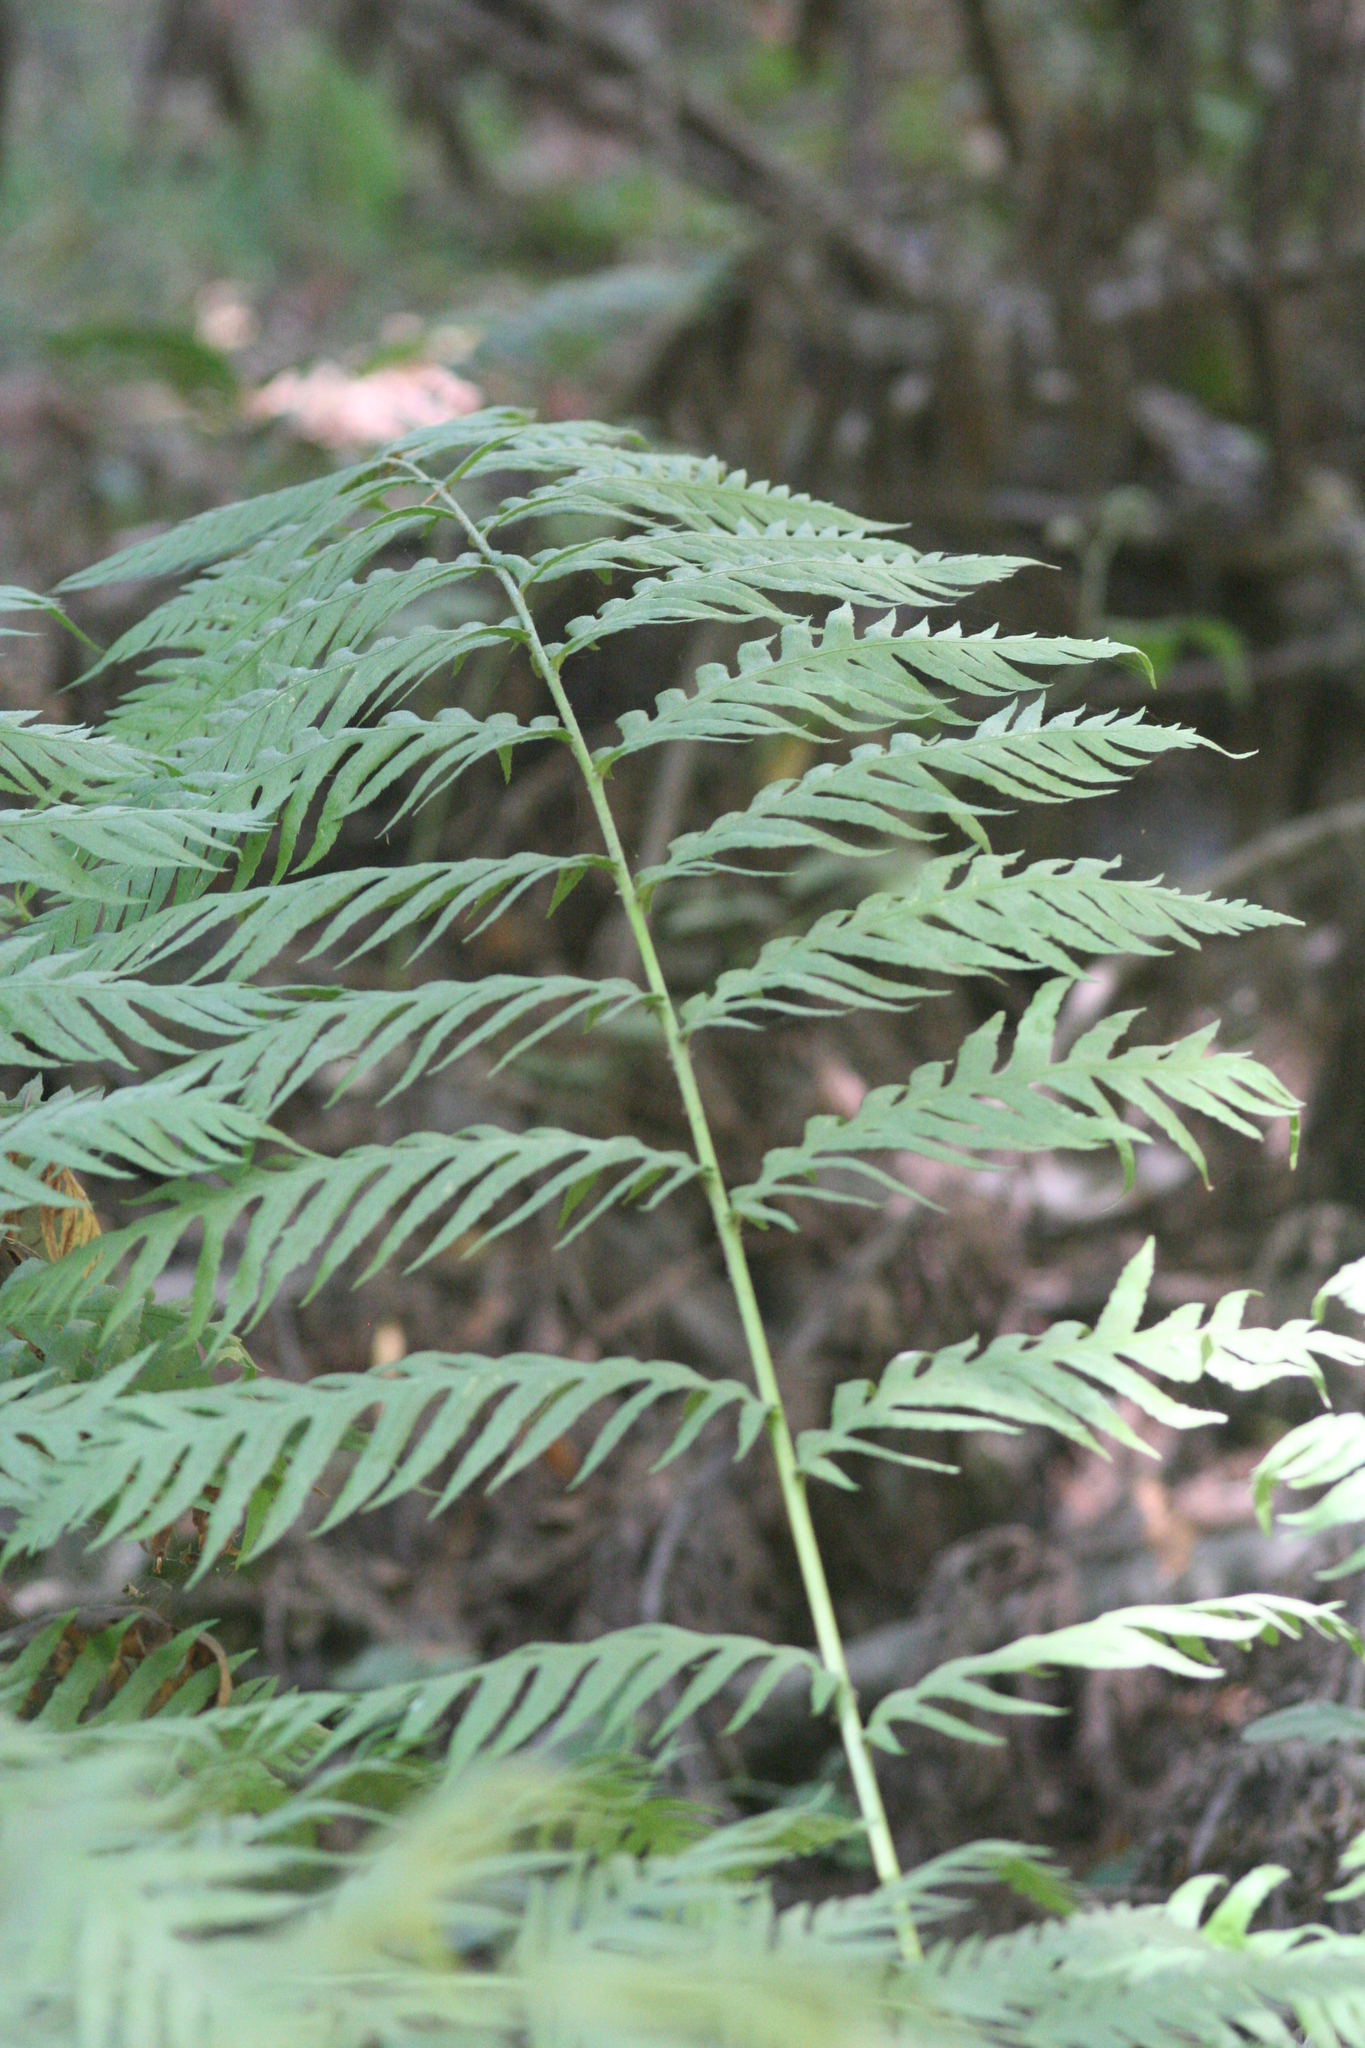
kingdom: Plantae
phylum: Tracheophyta
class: Polypodiopsida
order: Polypodiales
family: Blechnaceae
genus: Woodwardia
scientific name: Woodwardia fimbriata
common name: Giant chain fern
